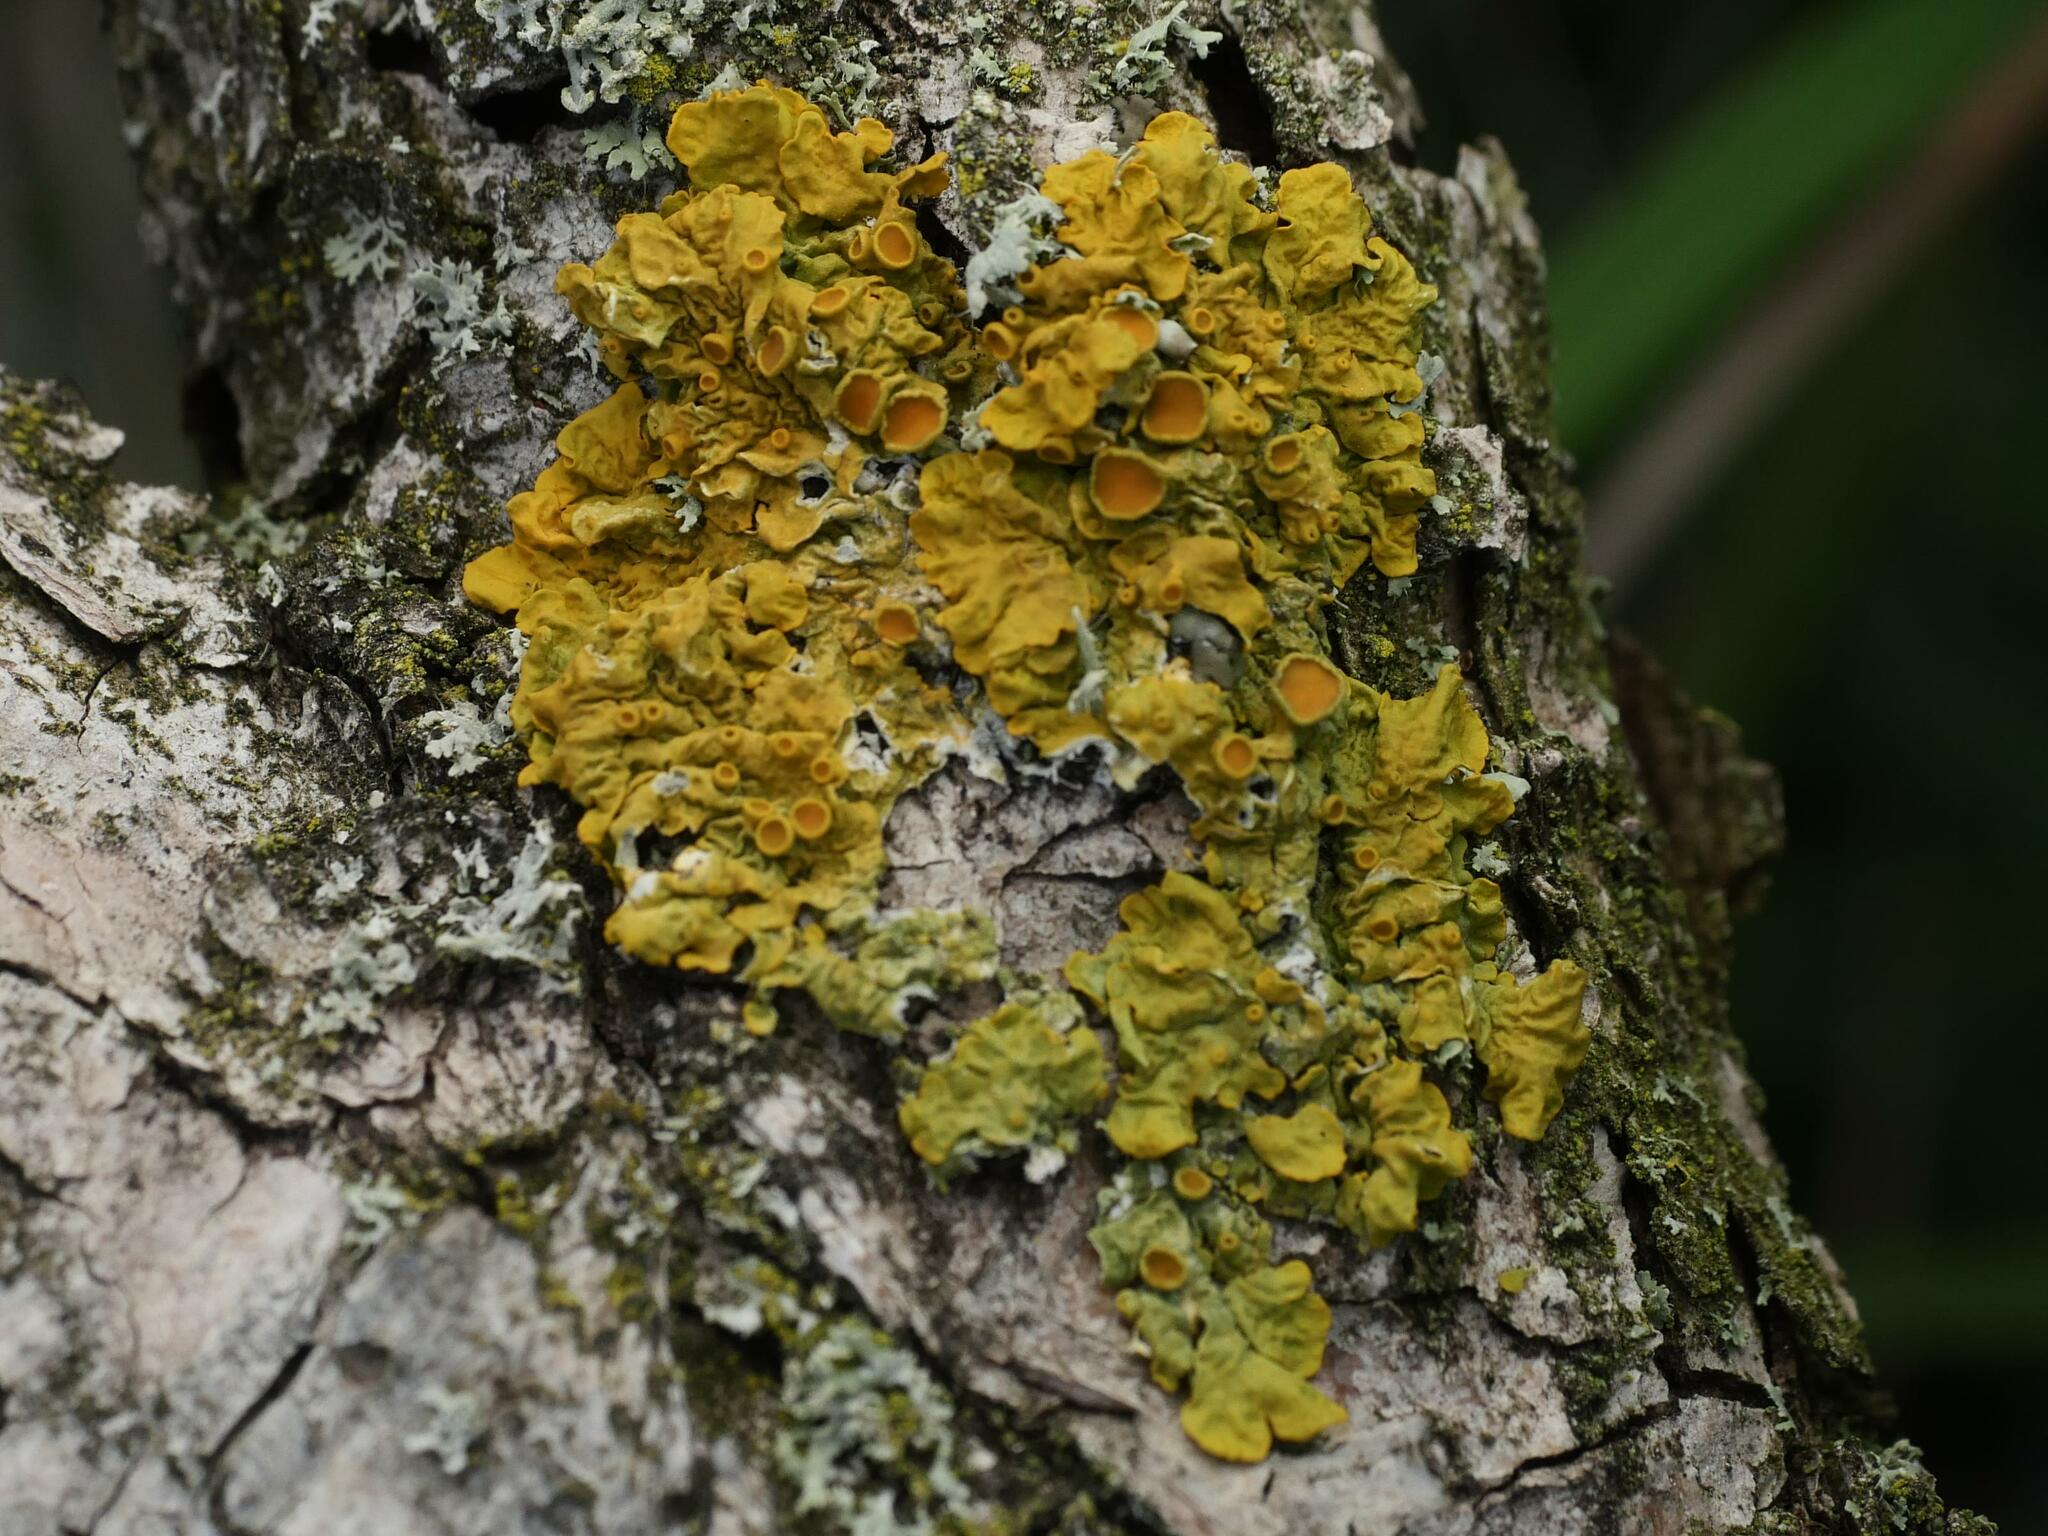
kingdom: Fungi
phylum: Ascomycota
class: Lecanoromycetes
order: Teloschistales
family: Teloschistaceae
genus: Xanthoria
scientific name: Xanthoria parietina
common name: Common orange lichen
